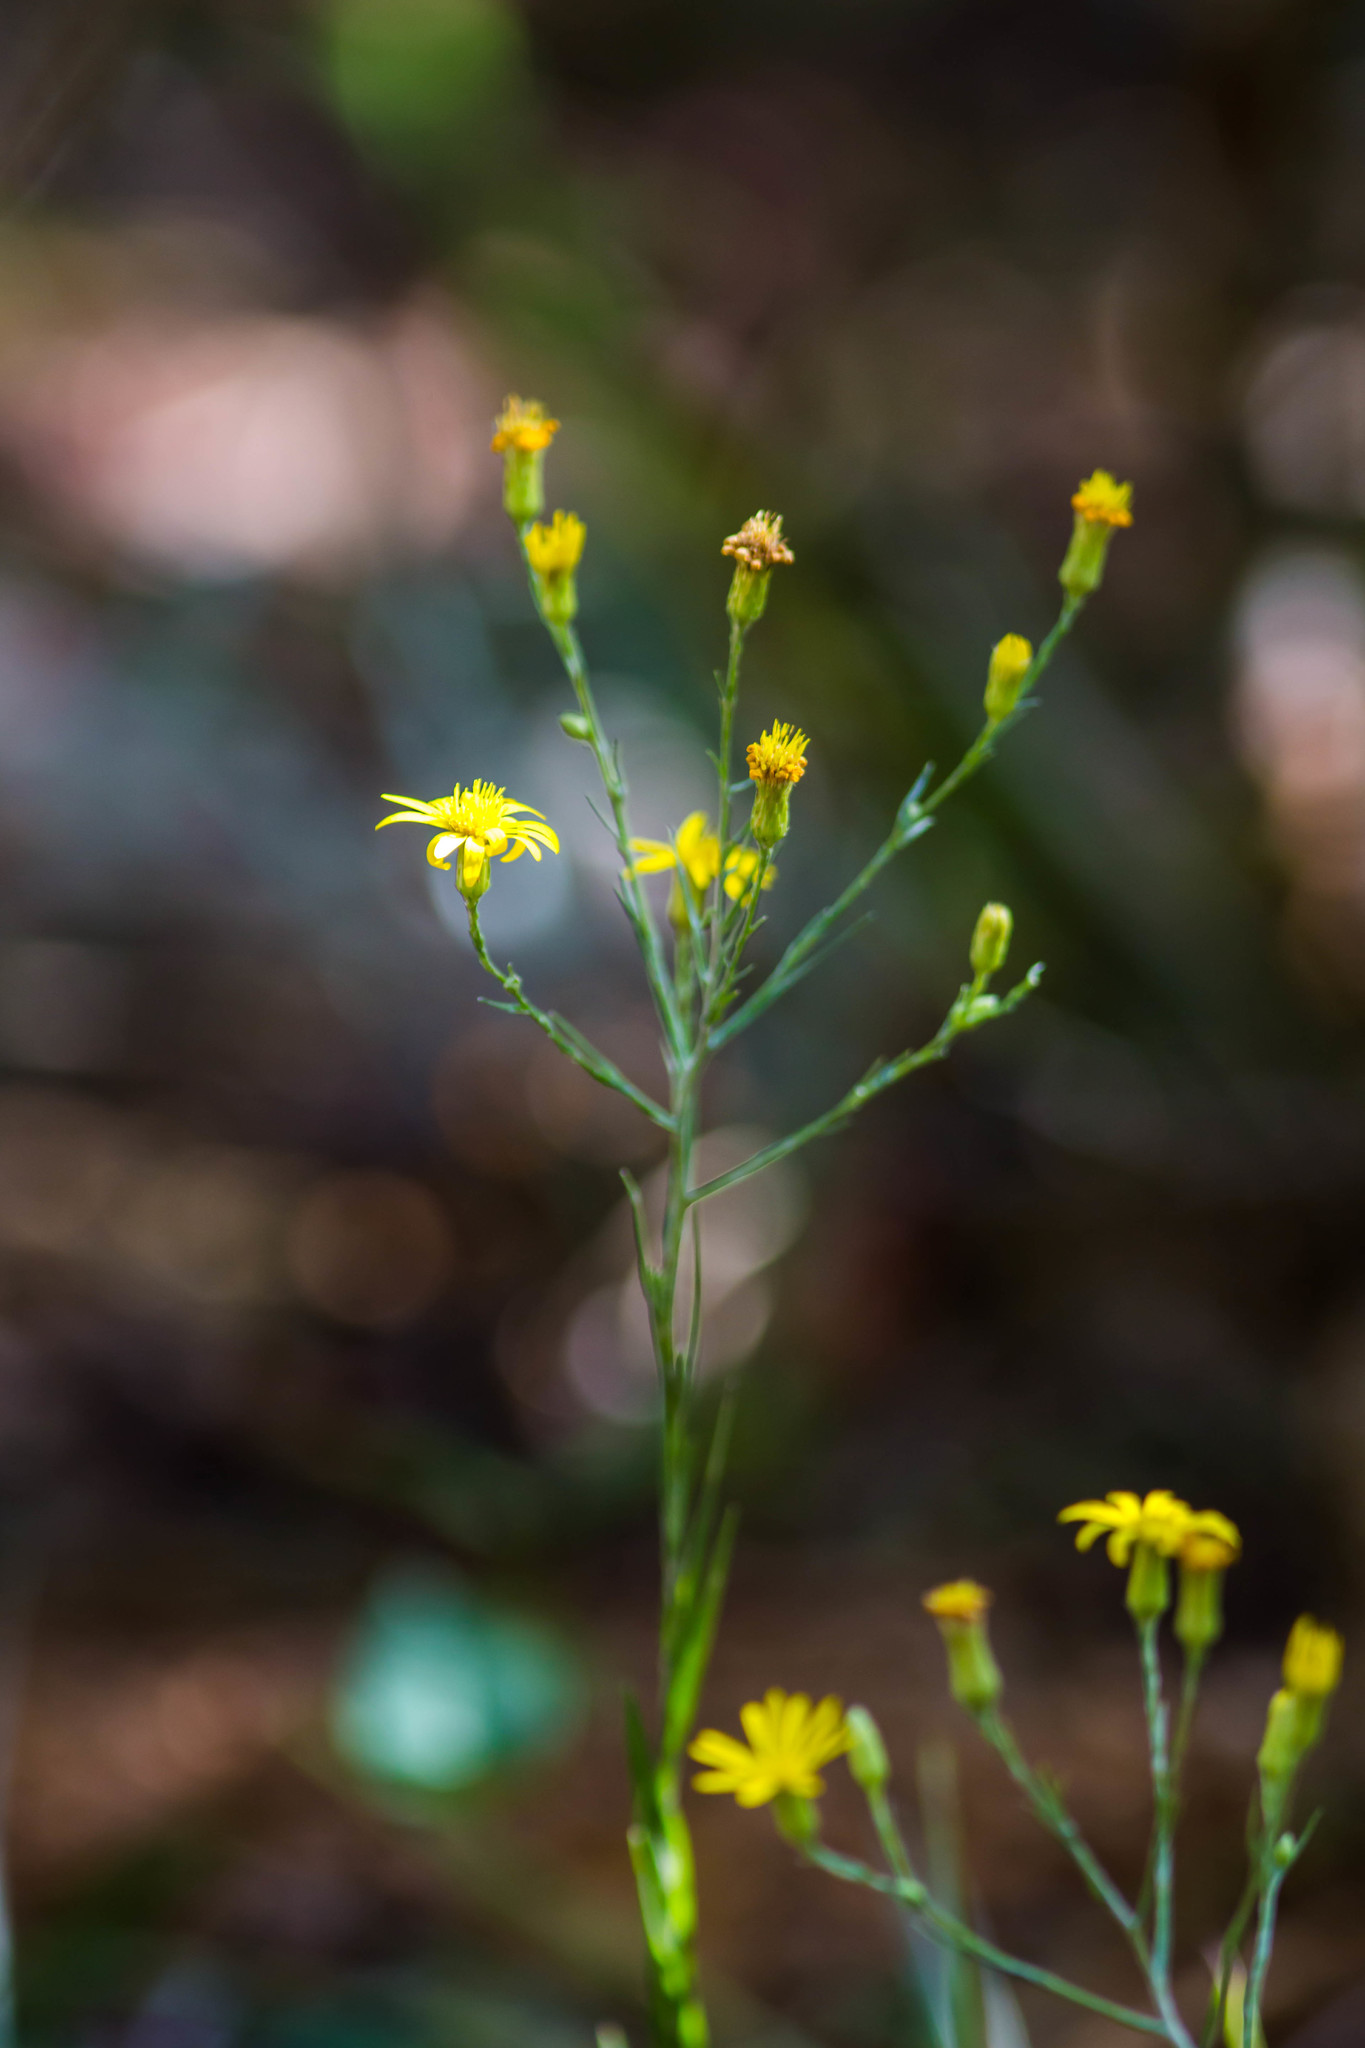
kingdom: Plantae
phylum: Tracheophyta
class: Magnoliopsida
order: Asterales
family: Asteraceae
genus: Pityopsis
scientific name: Pityopsis graminifolia
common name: Grass-leaf golden-aster
